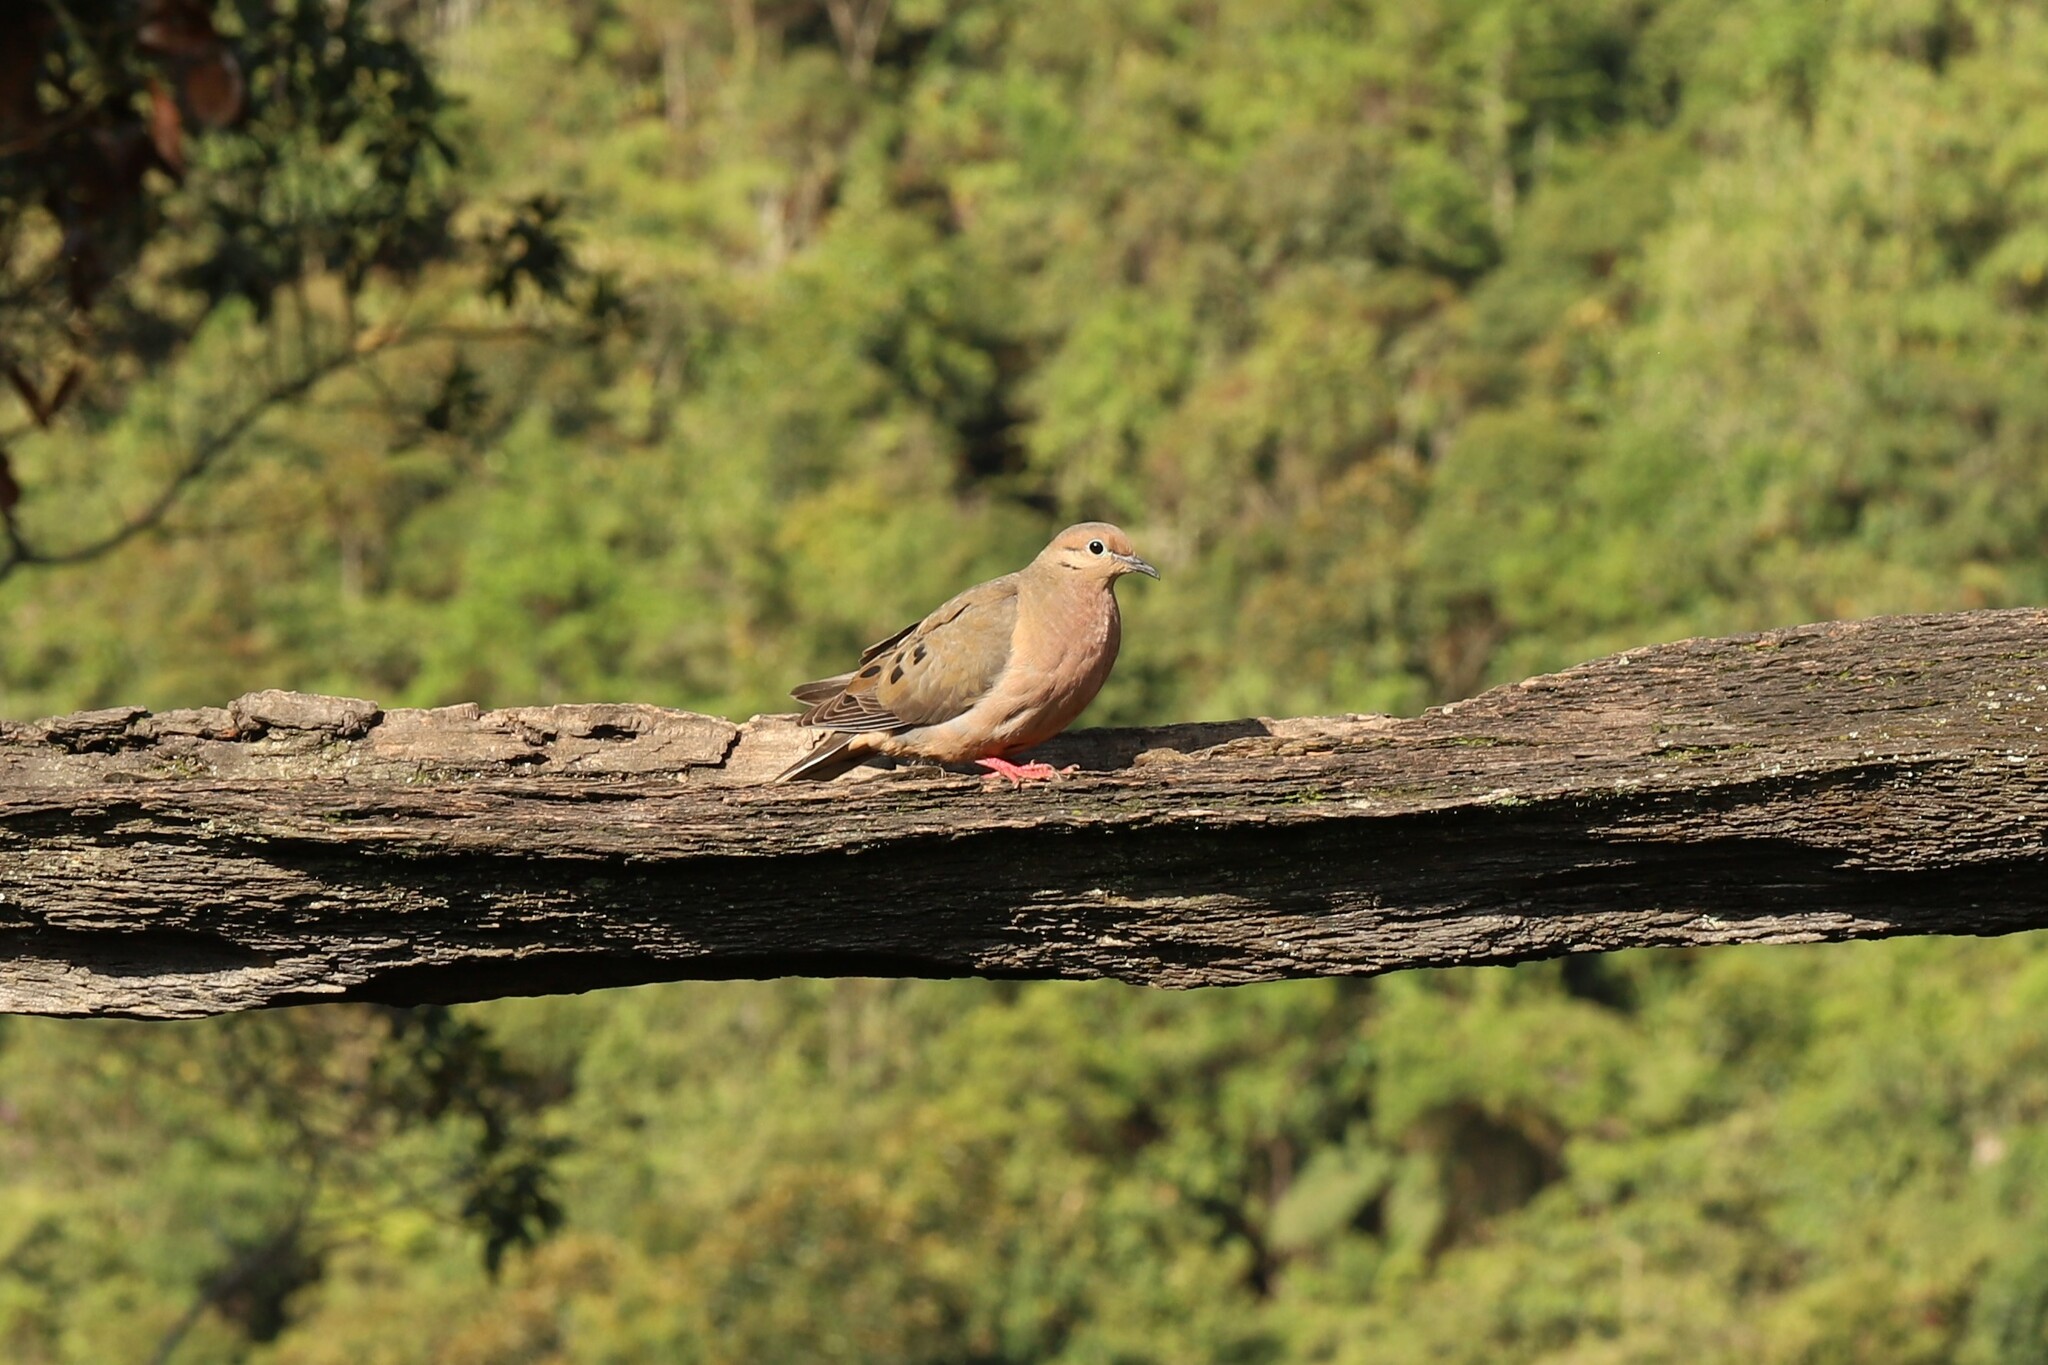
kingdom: Animalia
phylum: Chordata
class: Aves
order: Columbiformes
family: Columbidae
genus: Zenaida
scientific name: Zenaida auriculata
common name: Eared dove
